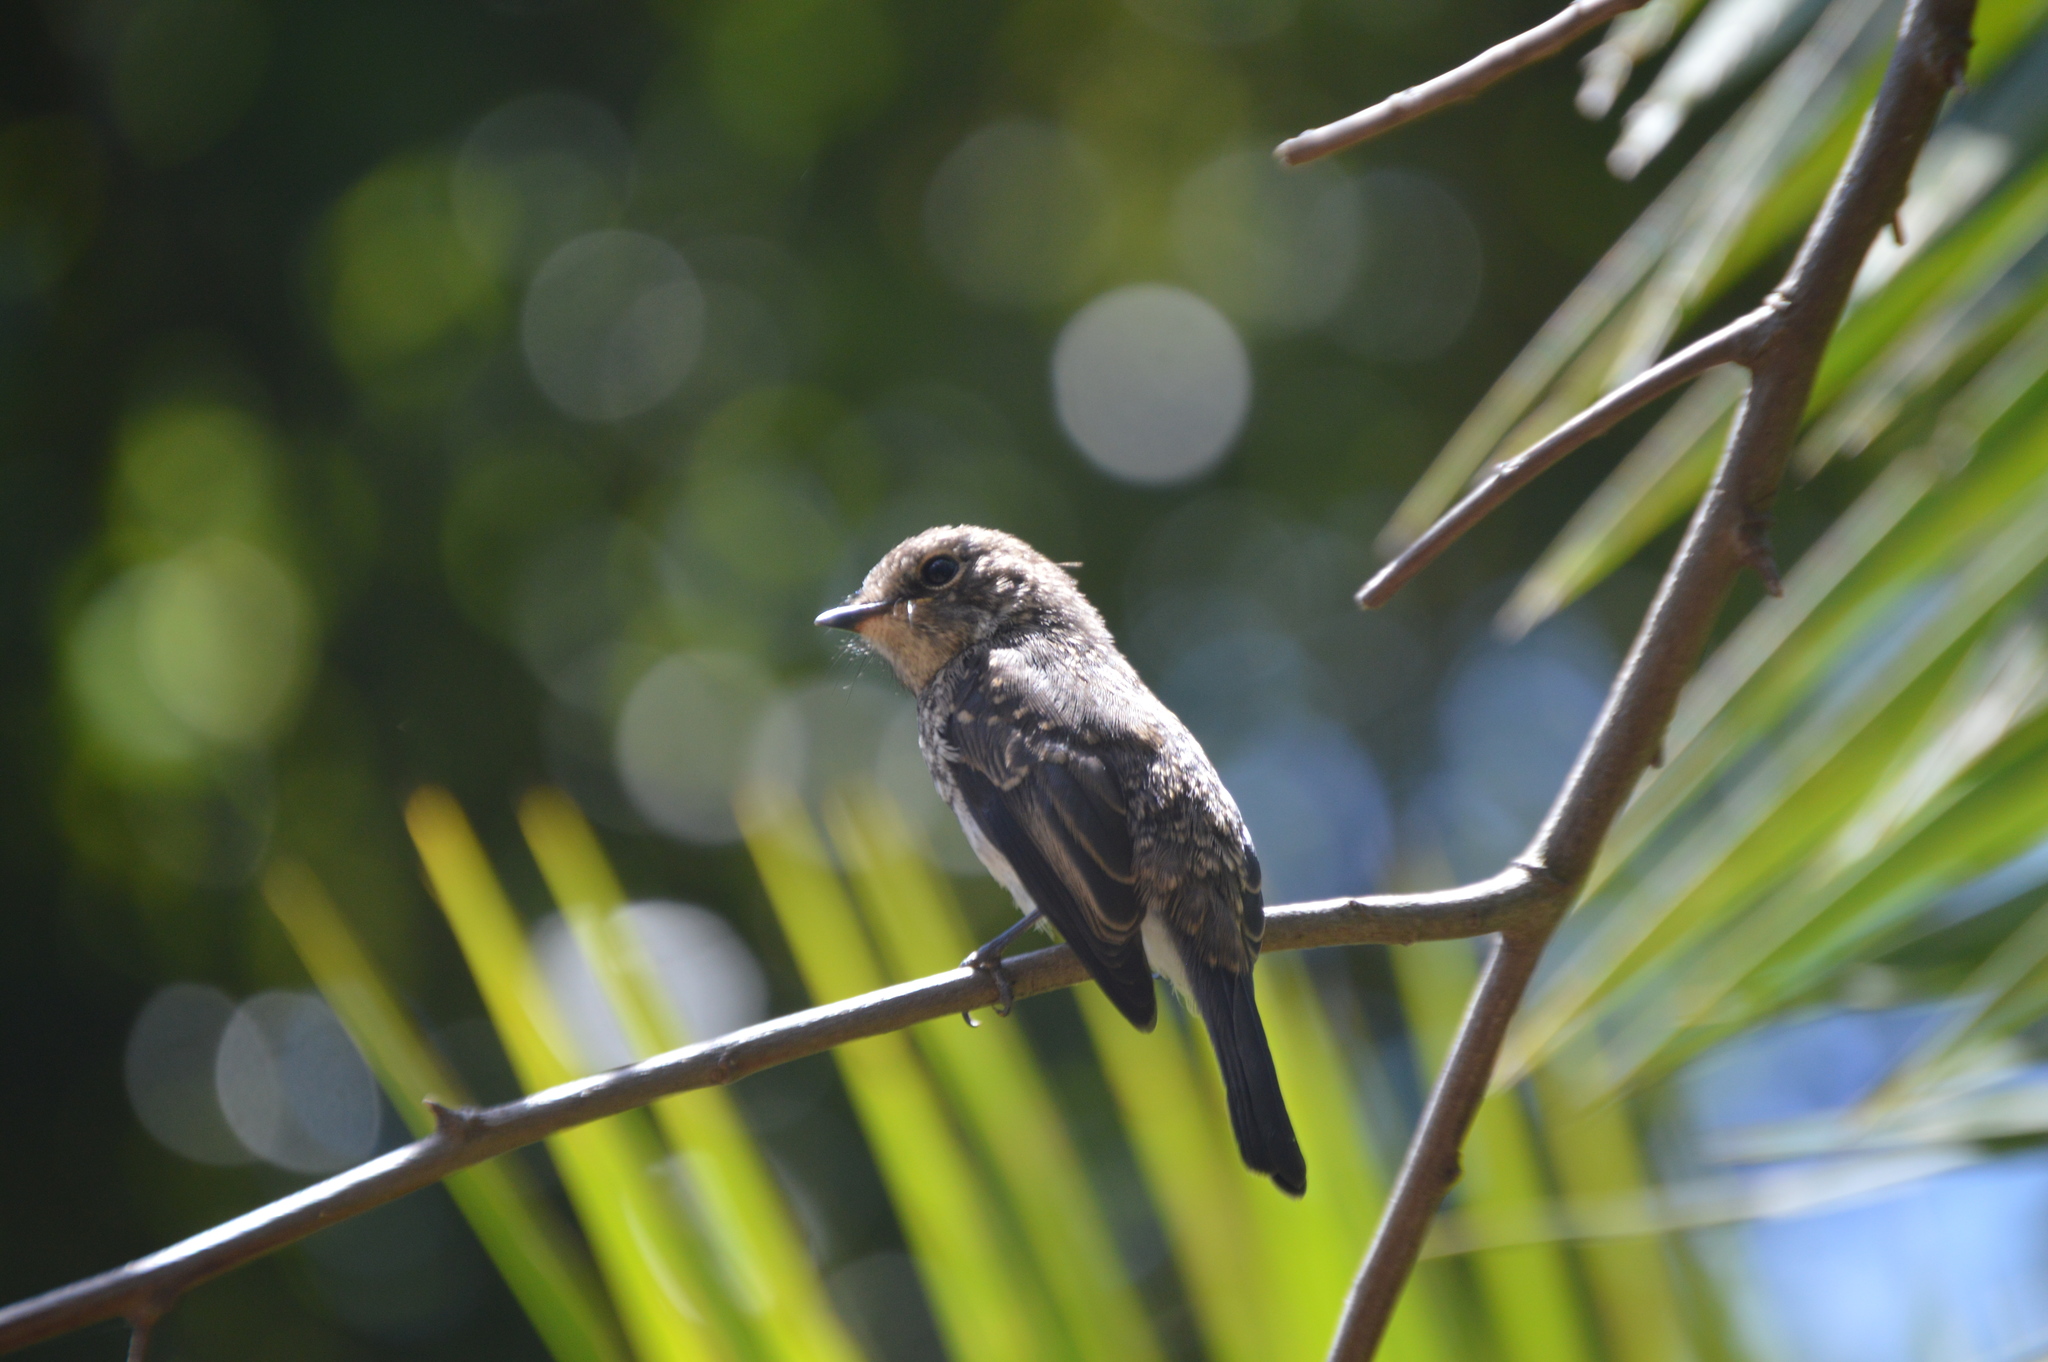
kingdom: Animalia
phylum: Chordata
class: Aves
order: Passeriformes
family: Muscicapidae
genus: Muscicapa
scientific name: Muscicapa adusta
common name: African dusky flycatcher
